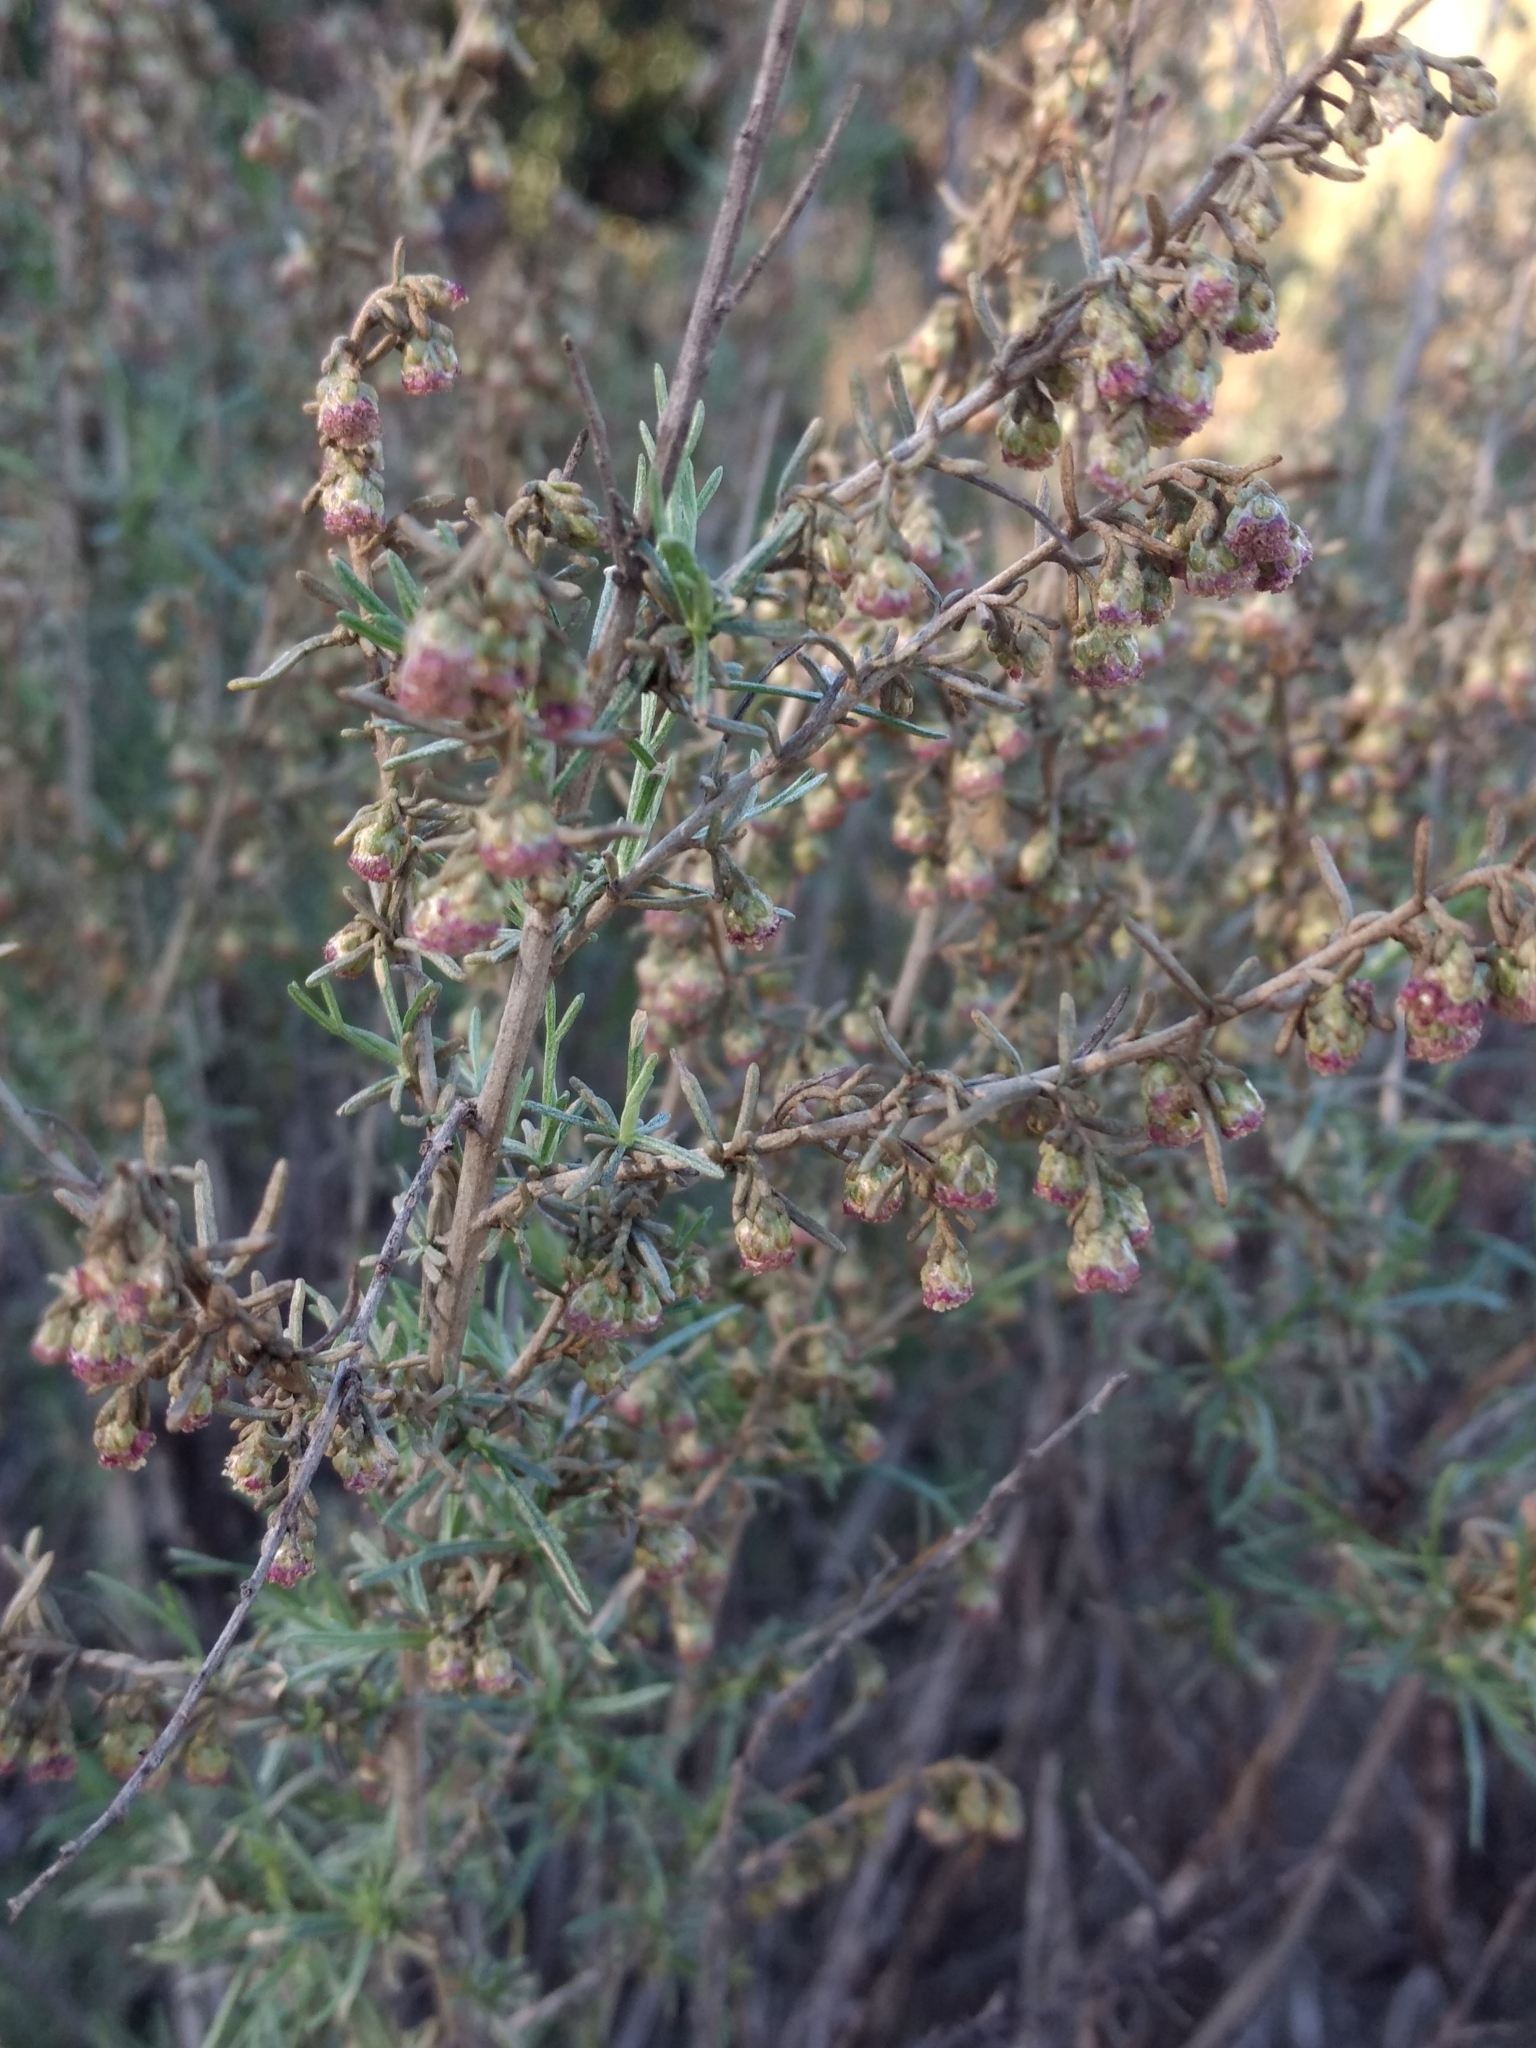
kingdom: Plantae
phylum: Tracheophyta
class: Magnoliopsida
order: Asterales
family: Asteraceae
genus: Artemisia
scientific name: Artemisia californica
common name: California sagebrush
